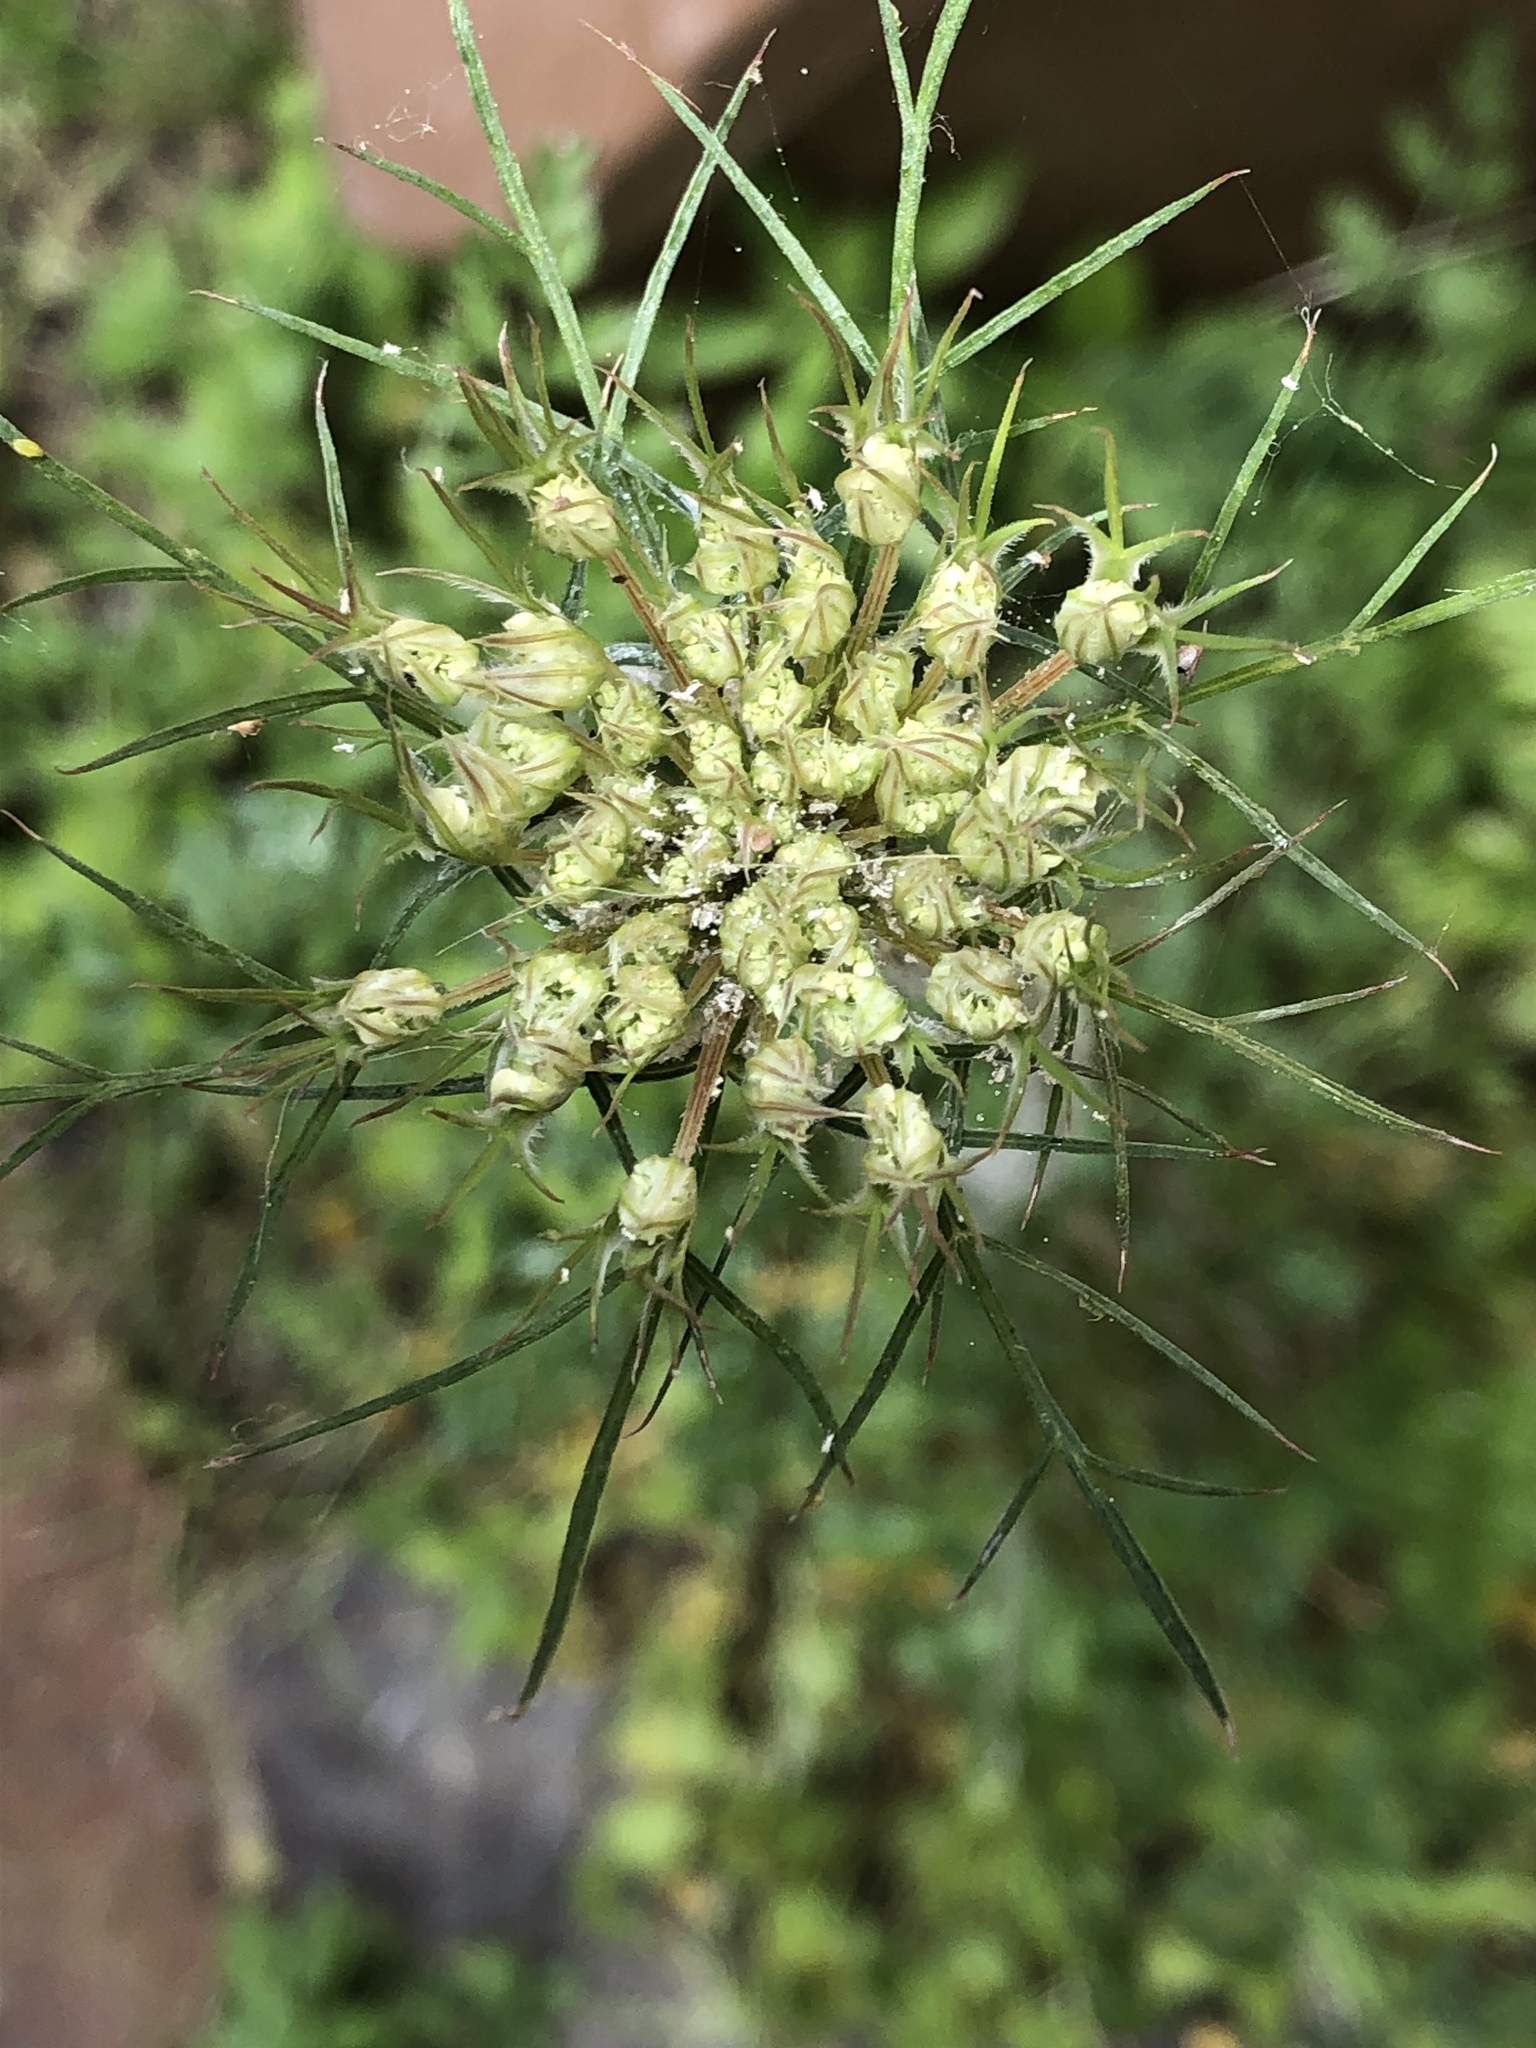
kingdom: Plantae
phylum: Tracheophyta
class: Magnoliopsida
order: Apiales
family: Apiaceae
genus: Daucus
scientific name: Daucus carota
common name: Wild carrot
